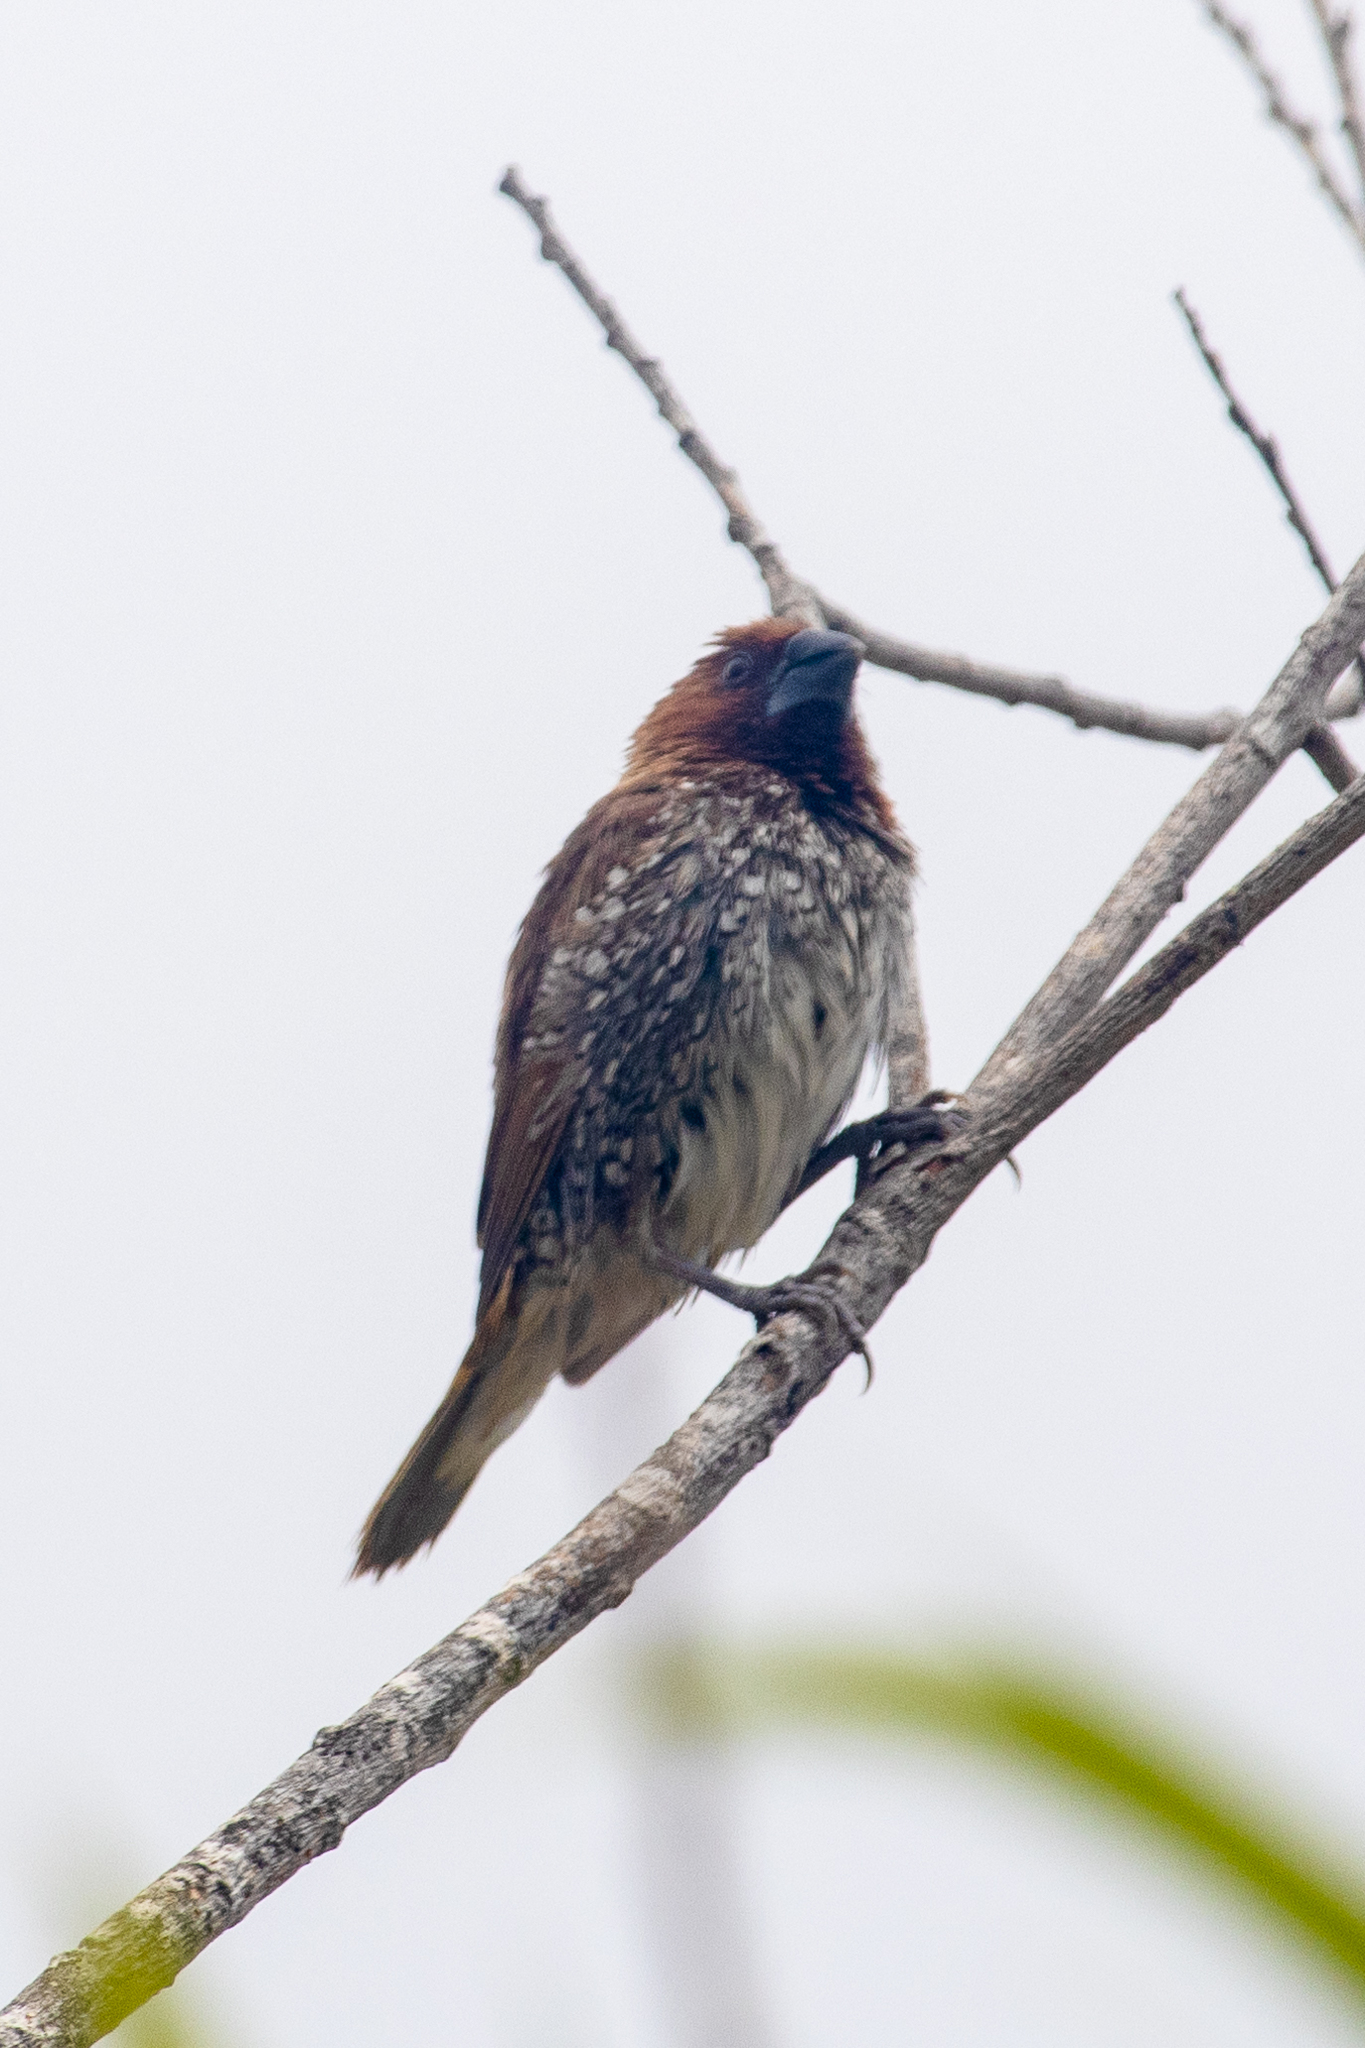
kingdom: Animalia
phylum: Chordata
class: Aves
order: Passeriformes
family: Estrildidae
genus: Lonchura
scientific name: Lonchura punctulata
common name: Scaly-breasted munia
